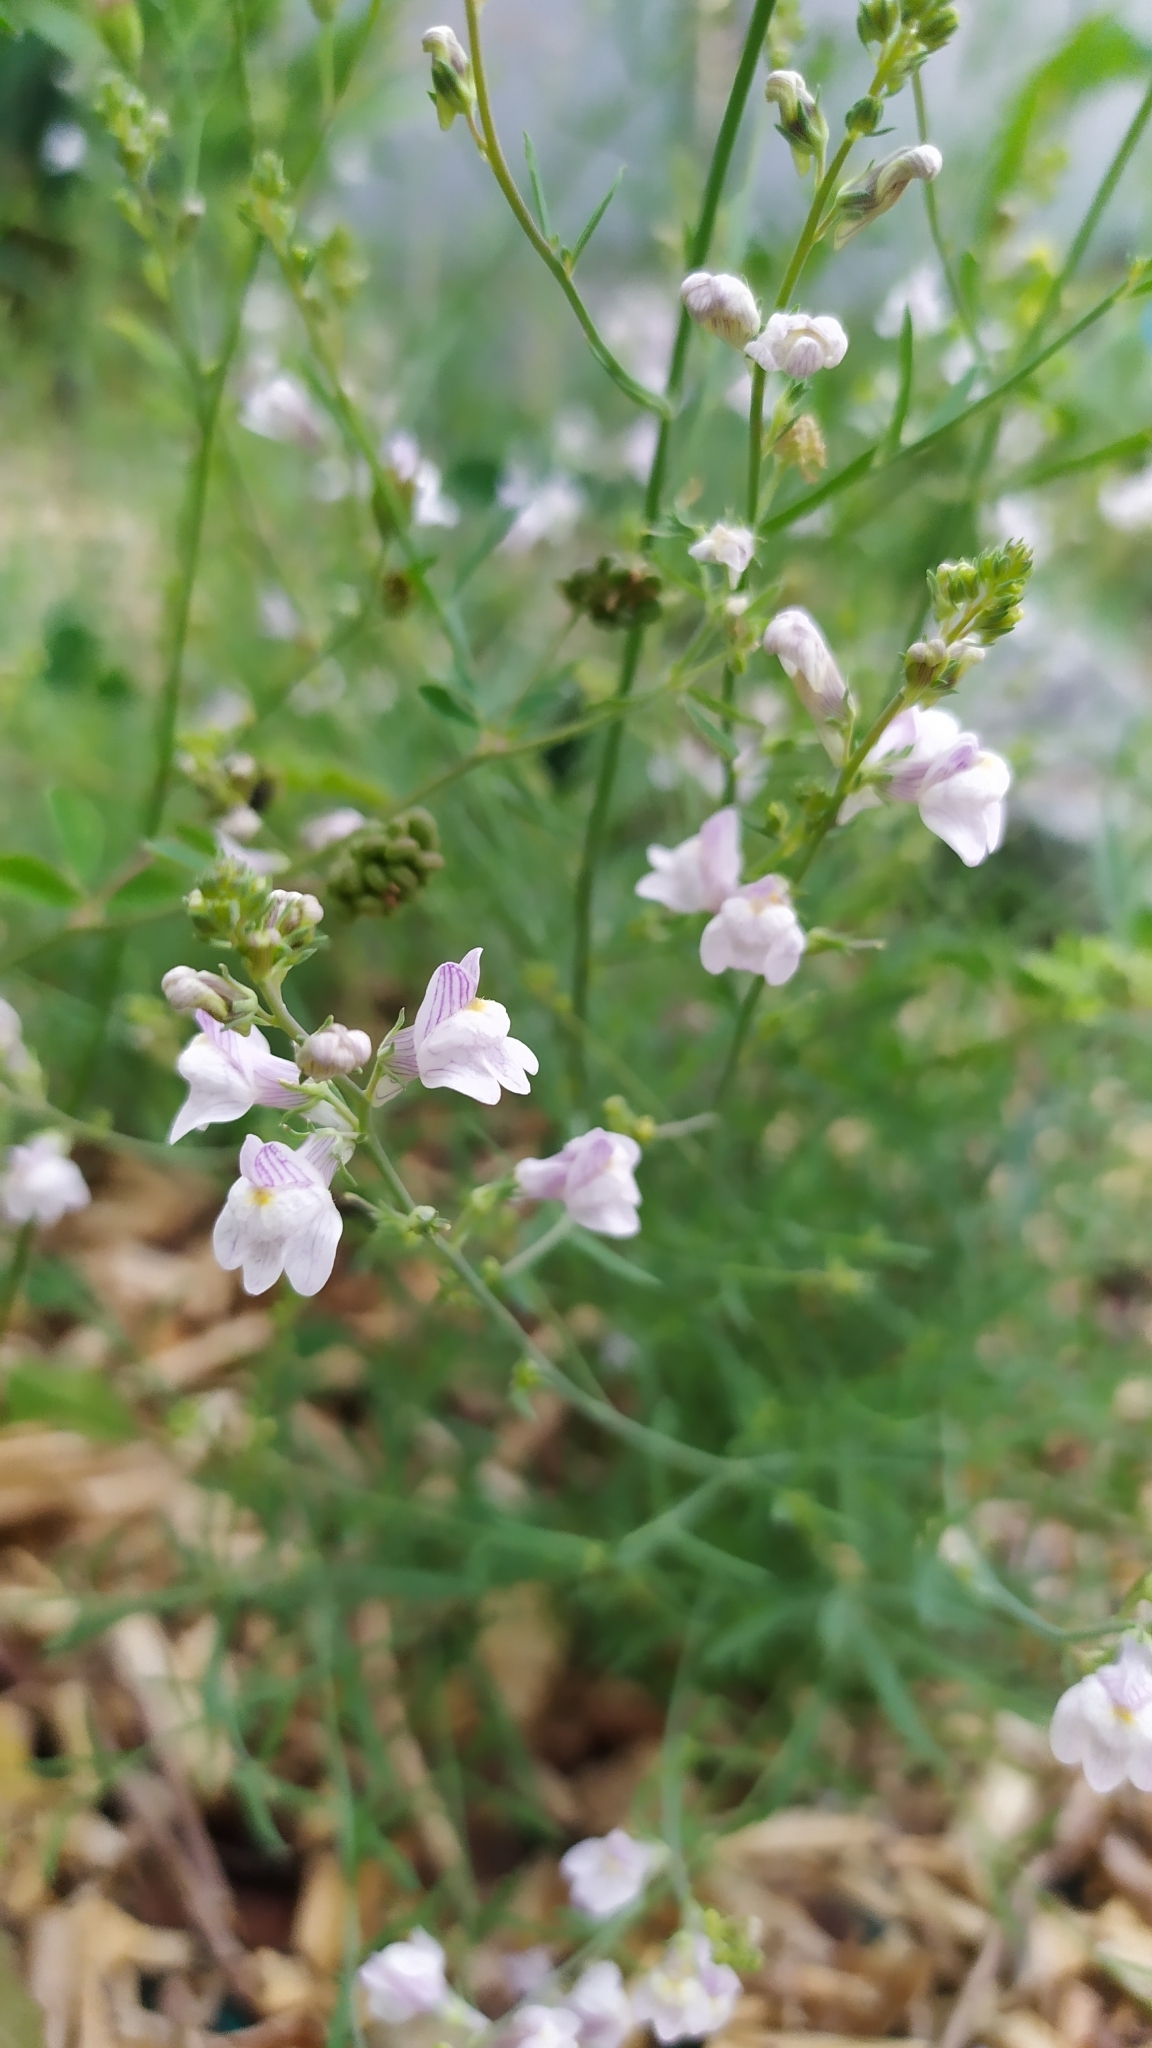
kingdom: Plantae
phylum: Tracheophyta
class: Magnoliopsida
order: Lamiales
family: Plantaginaceae
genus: Linaria
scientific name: Linaria repens
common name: Pale toadflax
